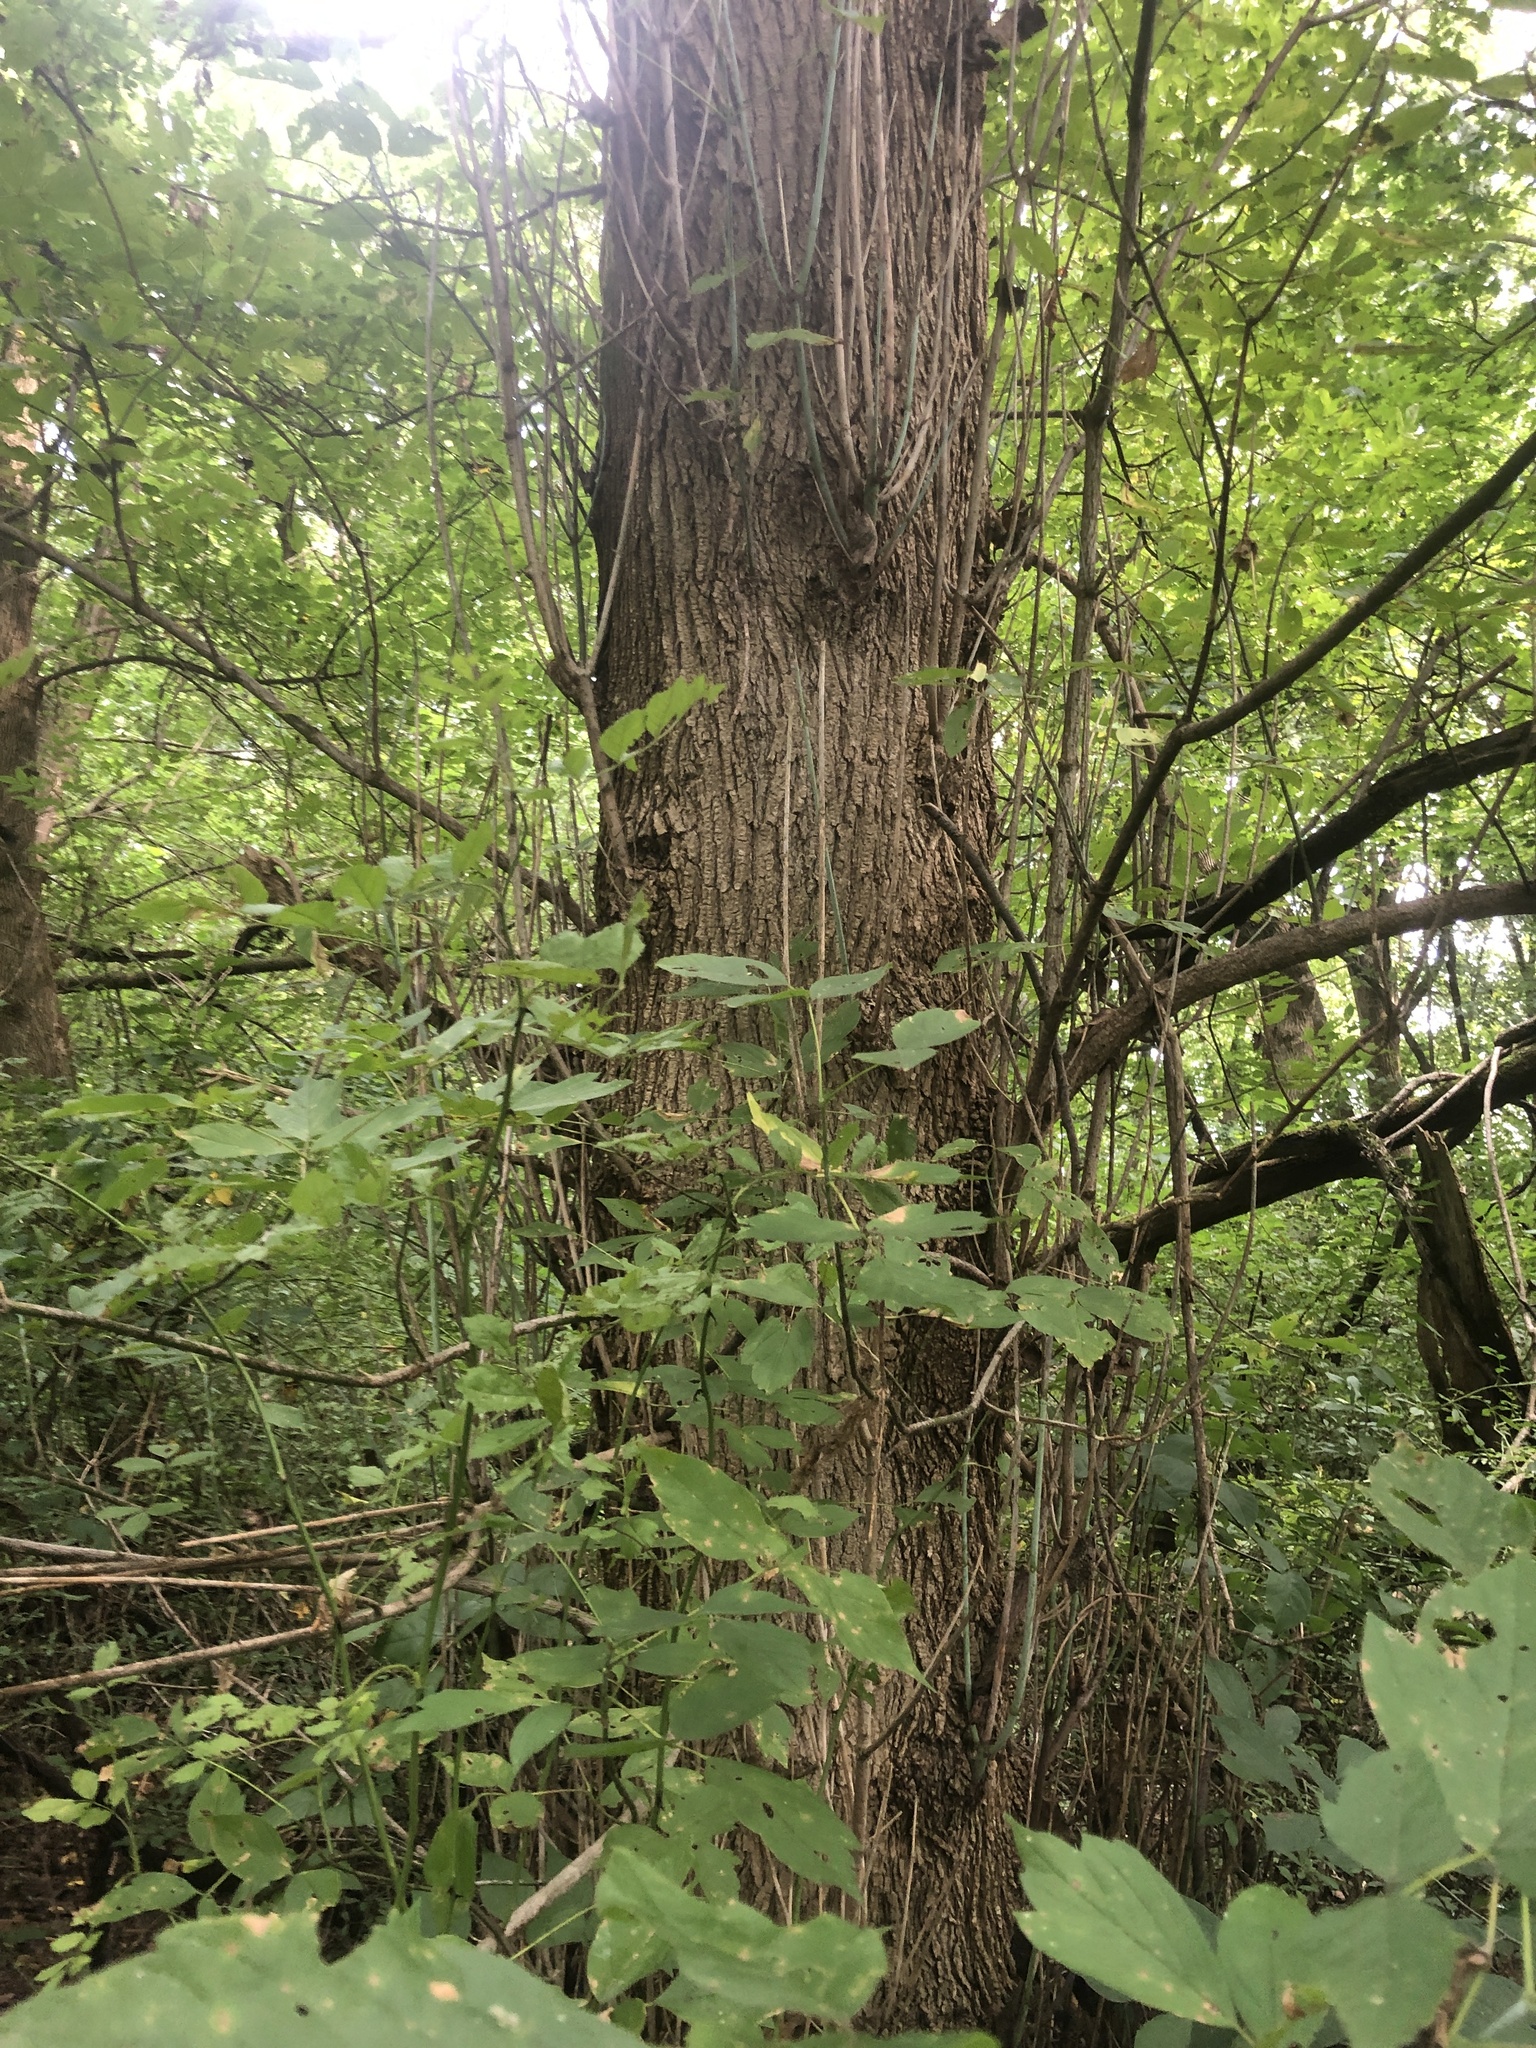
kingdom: Plantae
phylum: Tracheophyta
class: Magnoliopsida
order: Sapindales
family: Sapindaceae
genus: Acer
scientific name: Acer negundo
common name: Ashleaf maple
